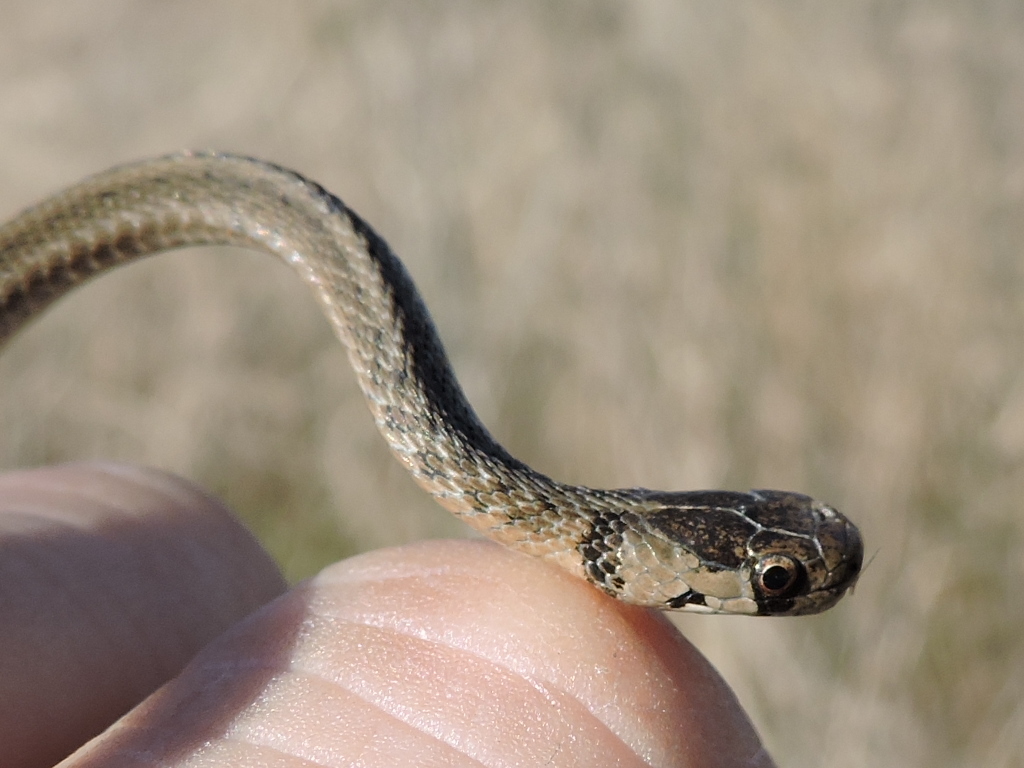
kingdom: Animalia
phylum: Chordata
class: Squamata
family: Colubridae
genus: Storeria
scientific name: Storeria dekayi
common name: (dekay’s) brown snake
